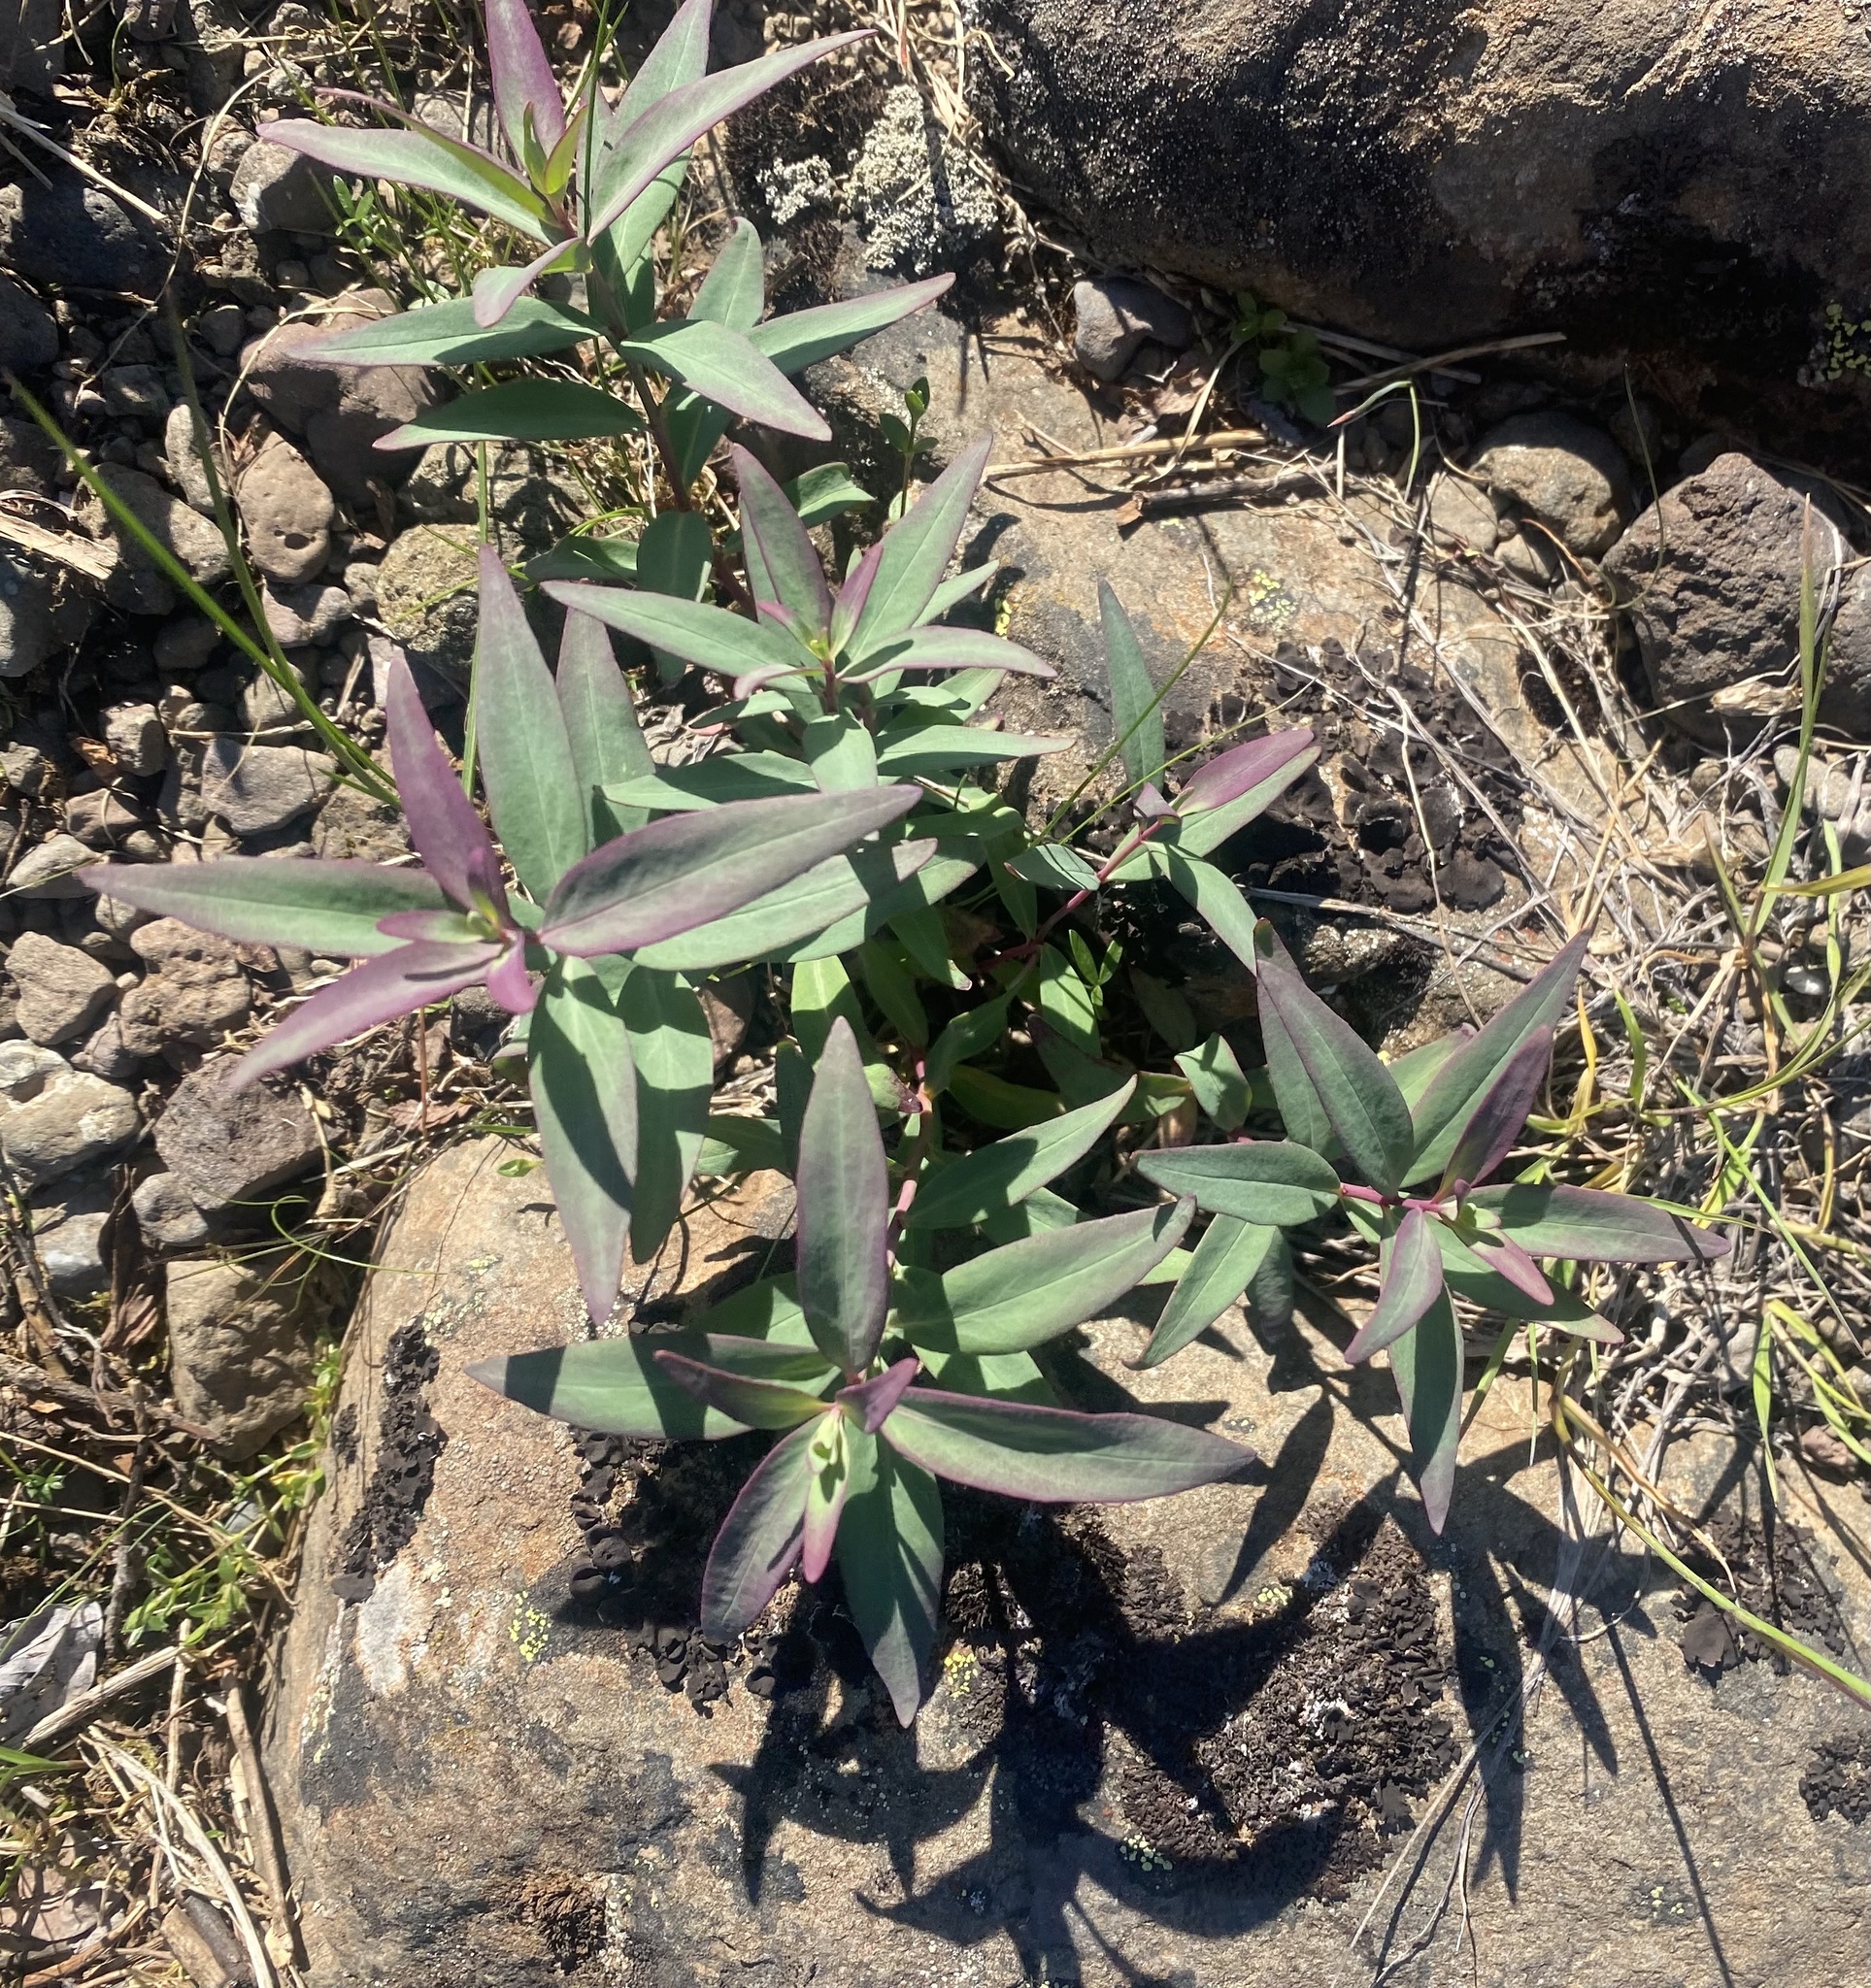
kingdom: Plantae
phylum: Tracheophyta
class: Magnoliopsida
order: Myrtales
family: Onagraceae
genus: Chamaenerion
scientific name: Chamaenerion latifolium
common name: Dwarf fireweed
